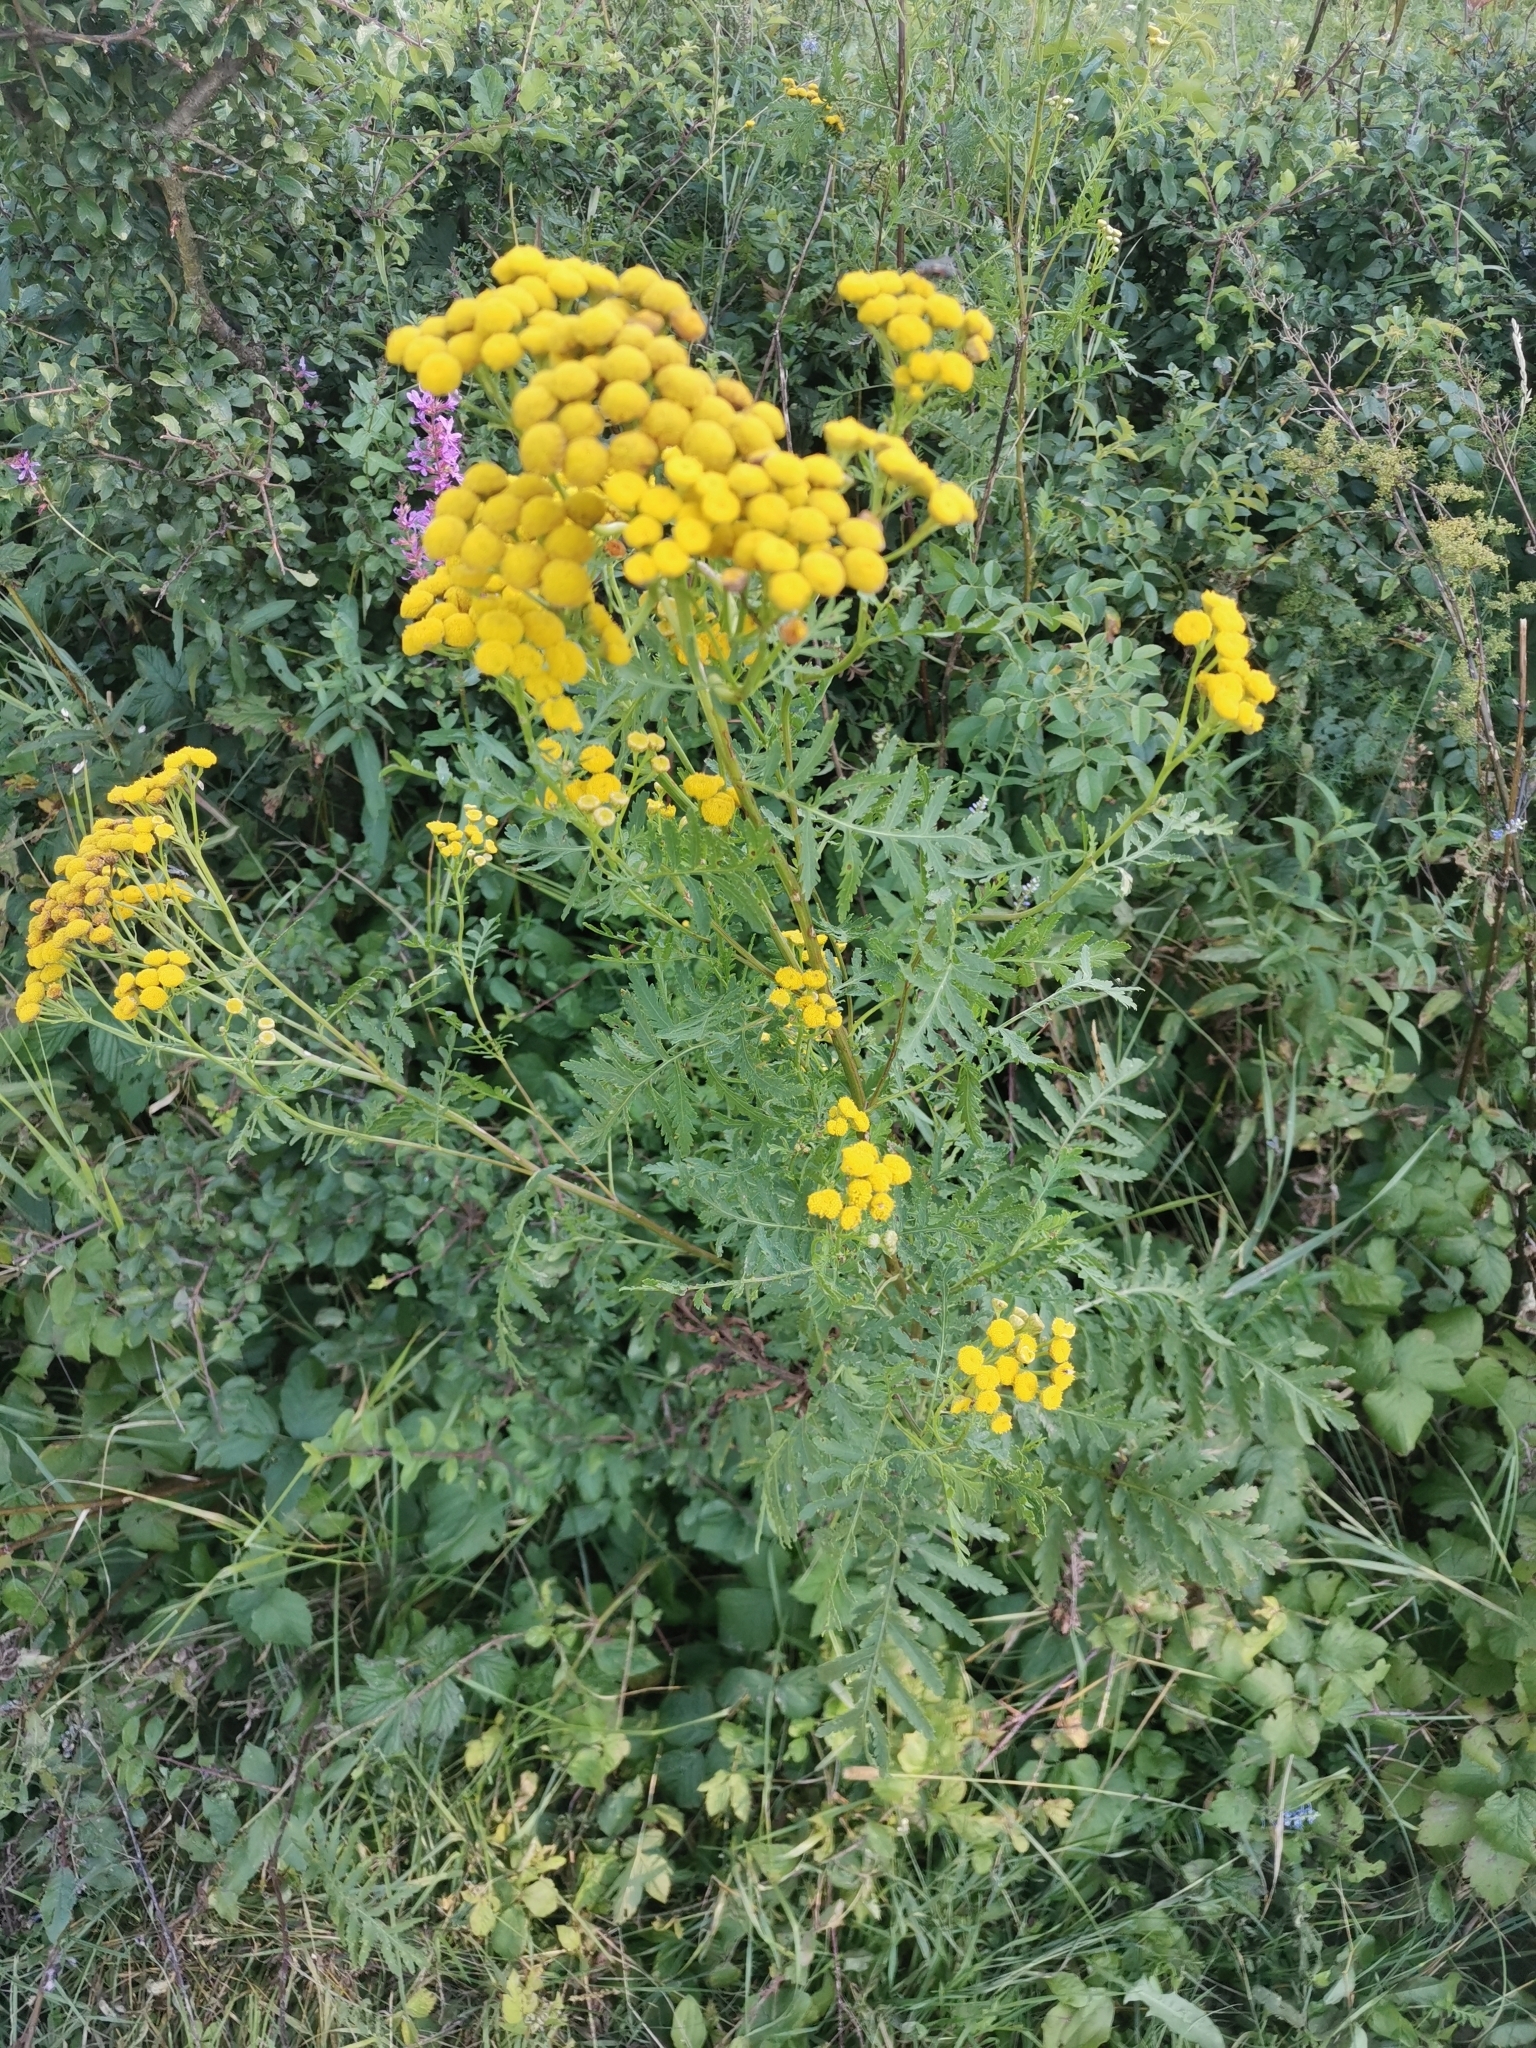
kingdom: Plantae
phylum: Tracheophyta
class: Magnoliopsida
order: Asterales
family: Asteraceae
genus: Tanacetum
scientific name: Tanacetum vulgare
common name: Common tansy
